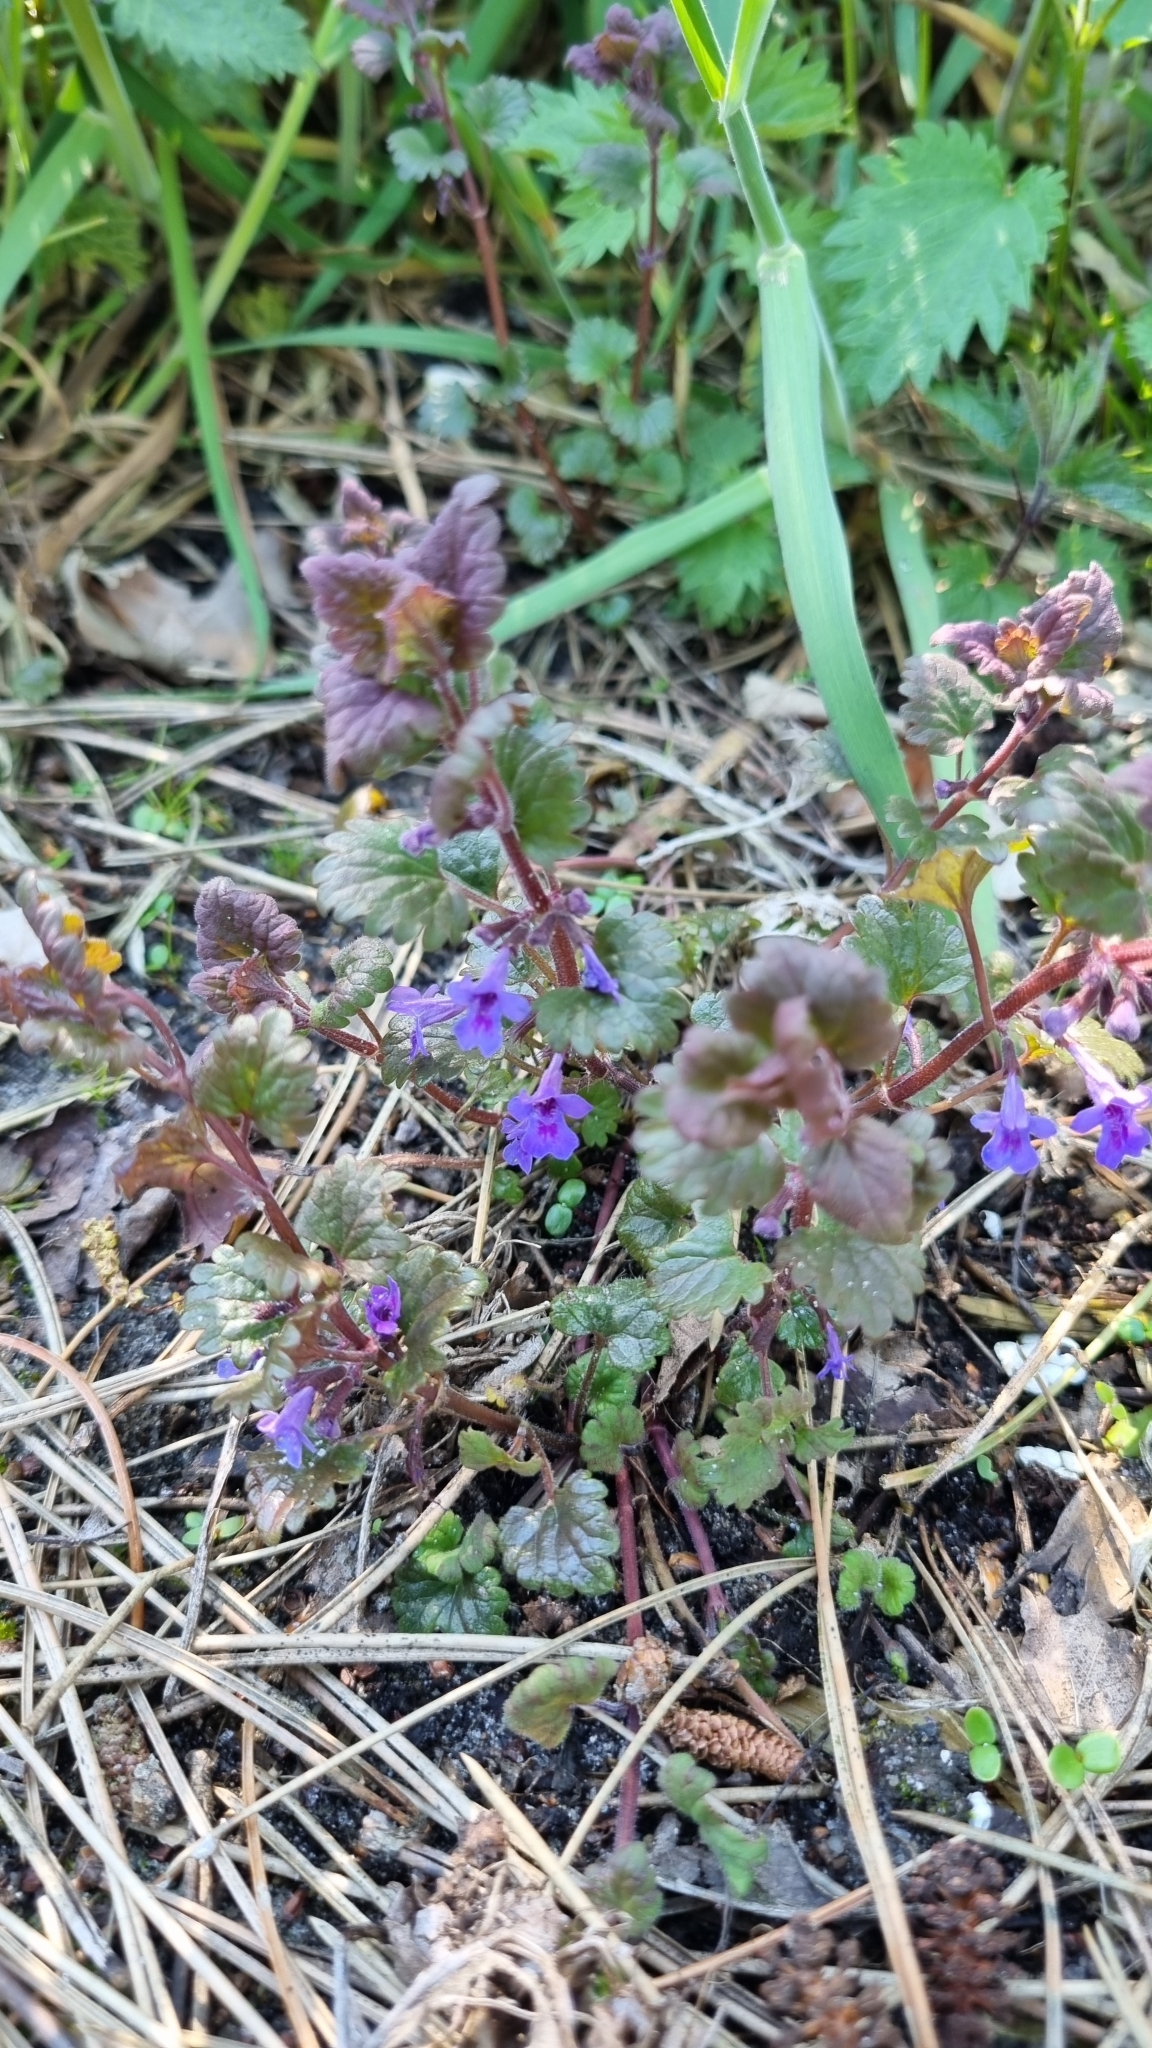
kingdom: Plantae
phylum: Tracheophyta
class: Magnoliopsida
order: Lamiales
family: Lamiaceae
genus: Glechoma
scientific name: Glechoma hederacea
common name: Ground ivy
